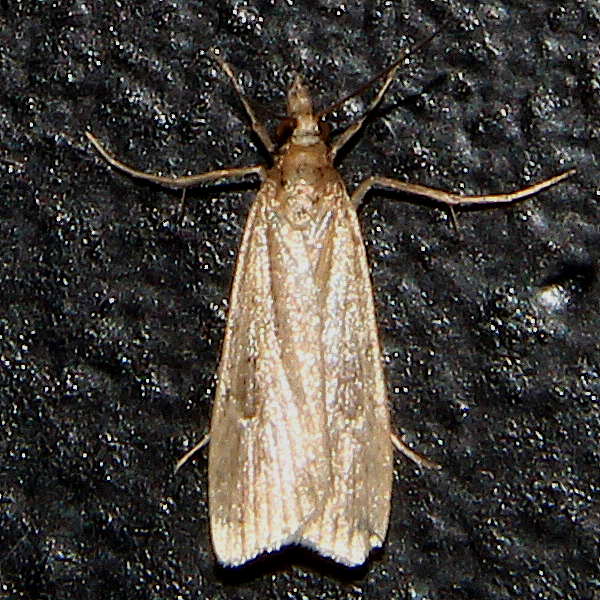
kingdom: Animalia
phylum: Arthropoda
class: Insecta
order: Lepidoptera
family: Crambidae
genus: Eudonia
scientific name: Eudonia sabulosella
